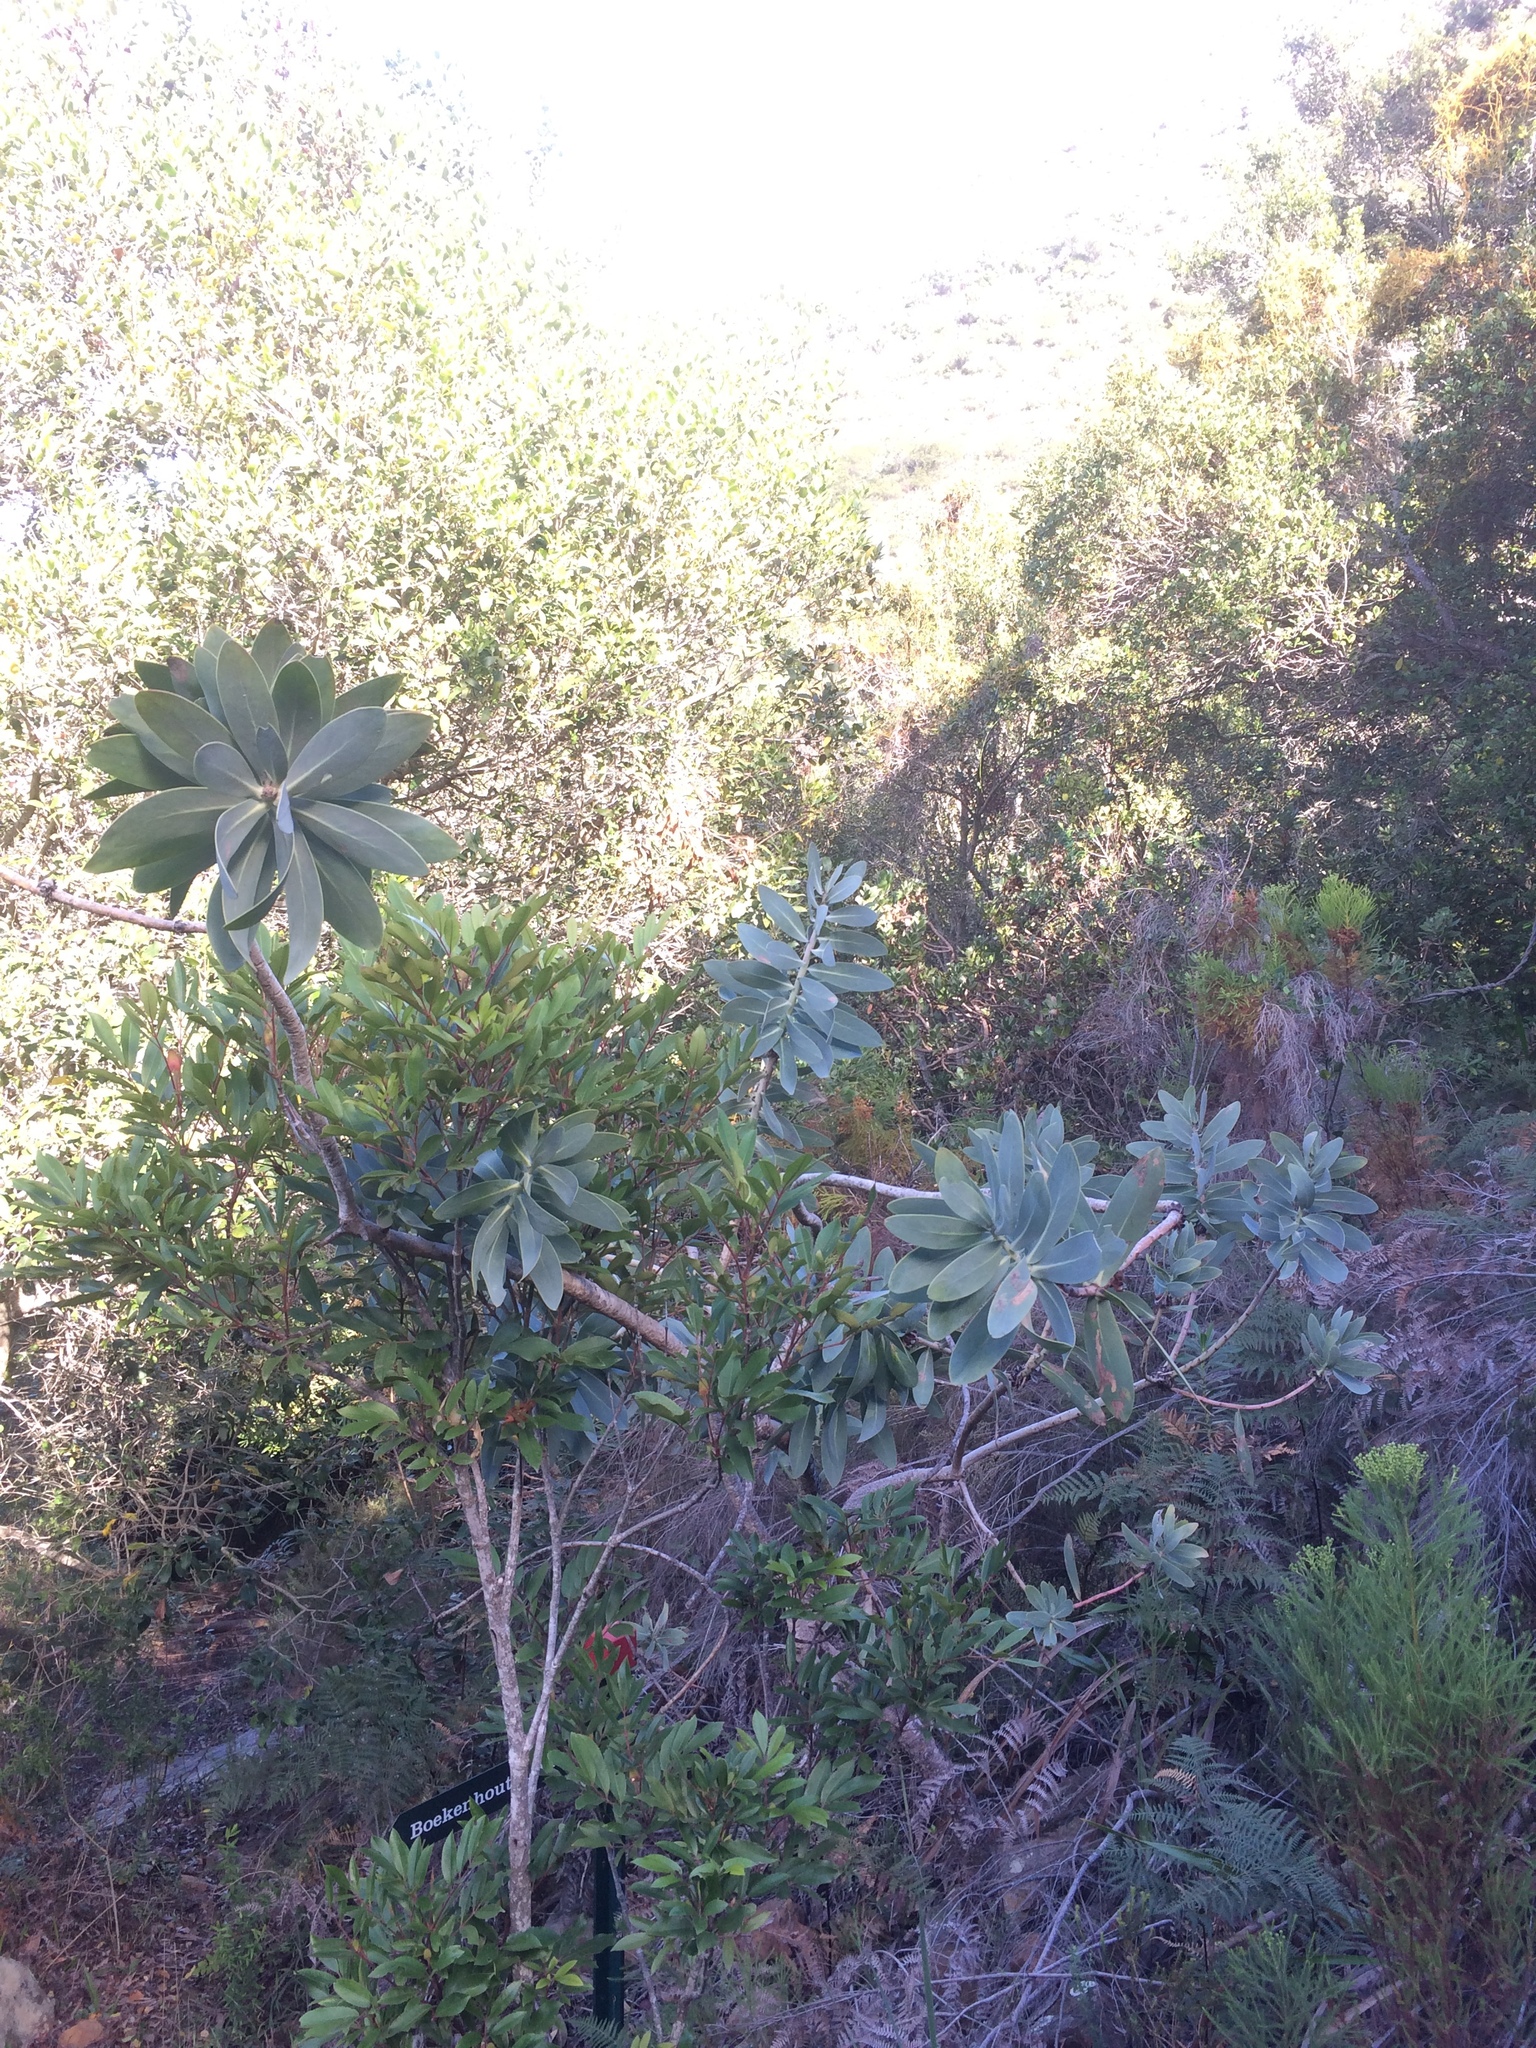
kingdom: Plantae
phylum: Tracheophyta
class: Magnoliopsida
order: Proteales
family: Proteaceae
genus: Protea
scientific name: Protea nitida
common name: Tree protea
